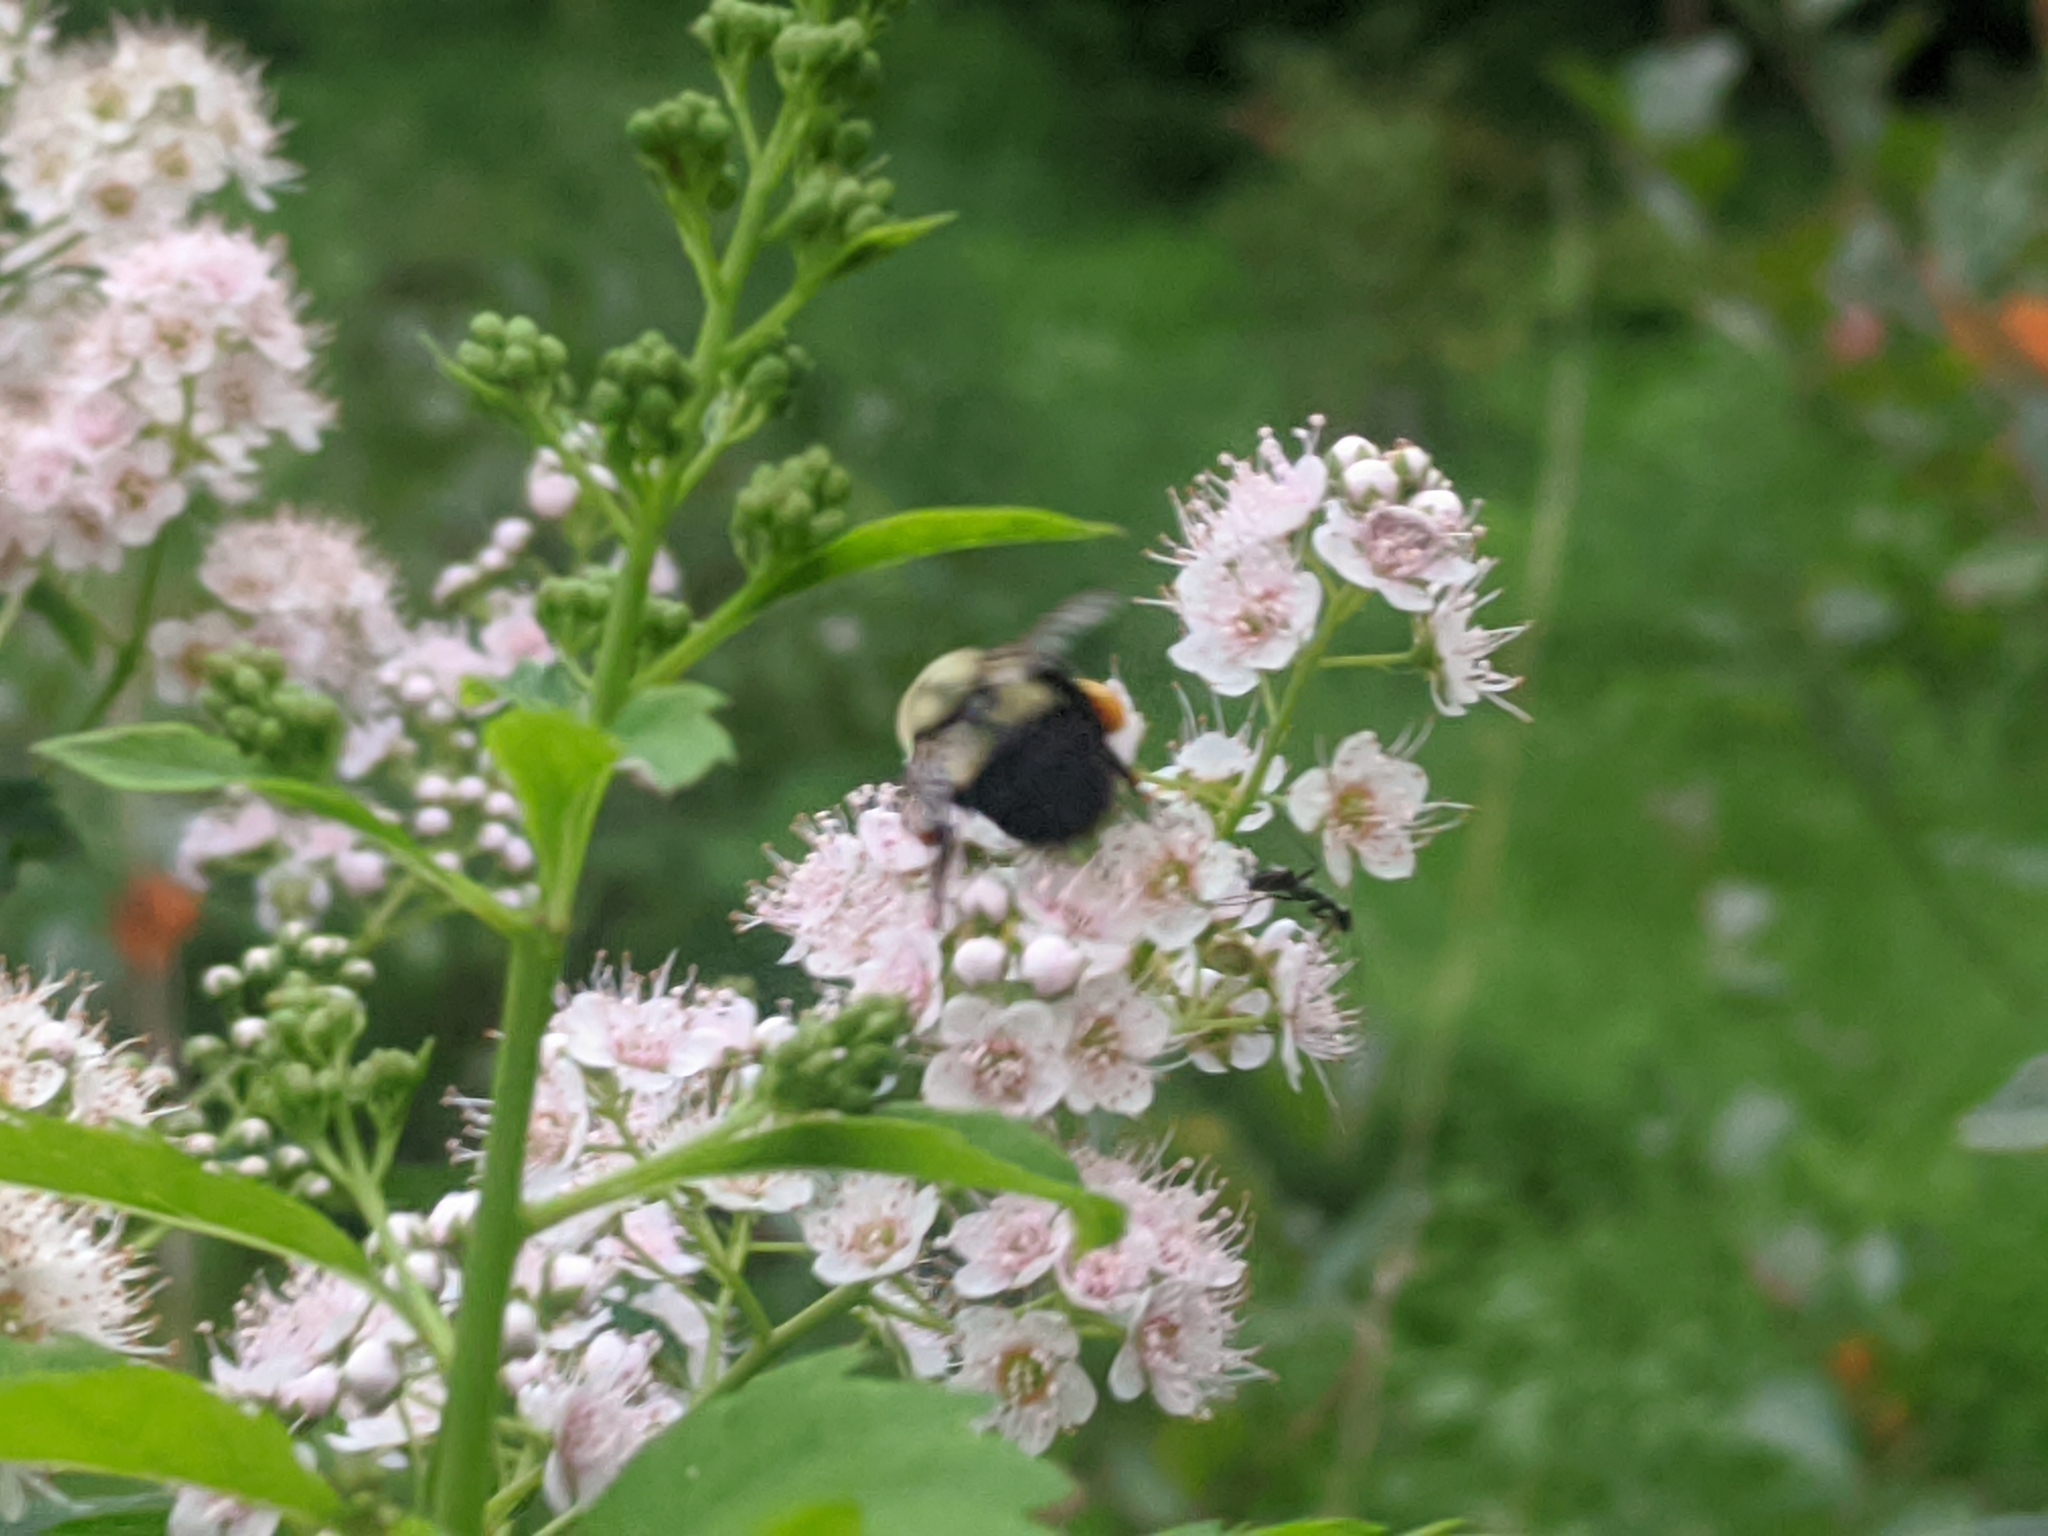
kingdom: Animalia
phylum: Arthropoda
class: Insecta
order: Hymenoptera
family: Apidae
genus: Bombus
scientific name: Bombus impatiens
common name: Common eastern bumble bee
